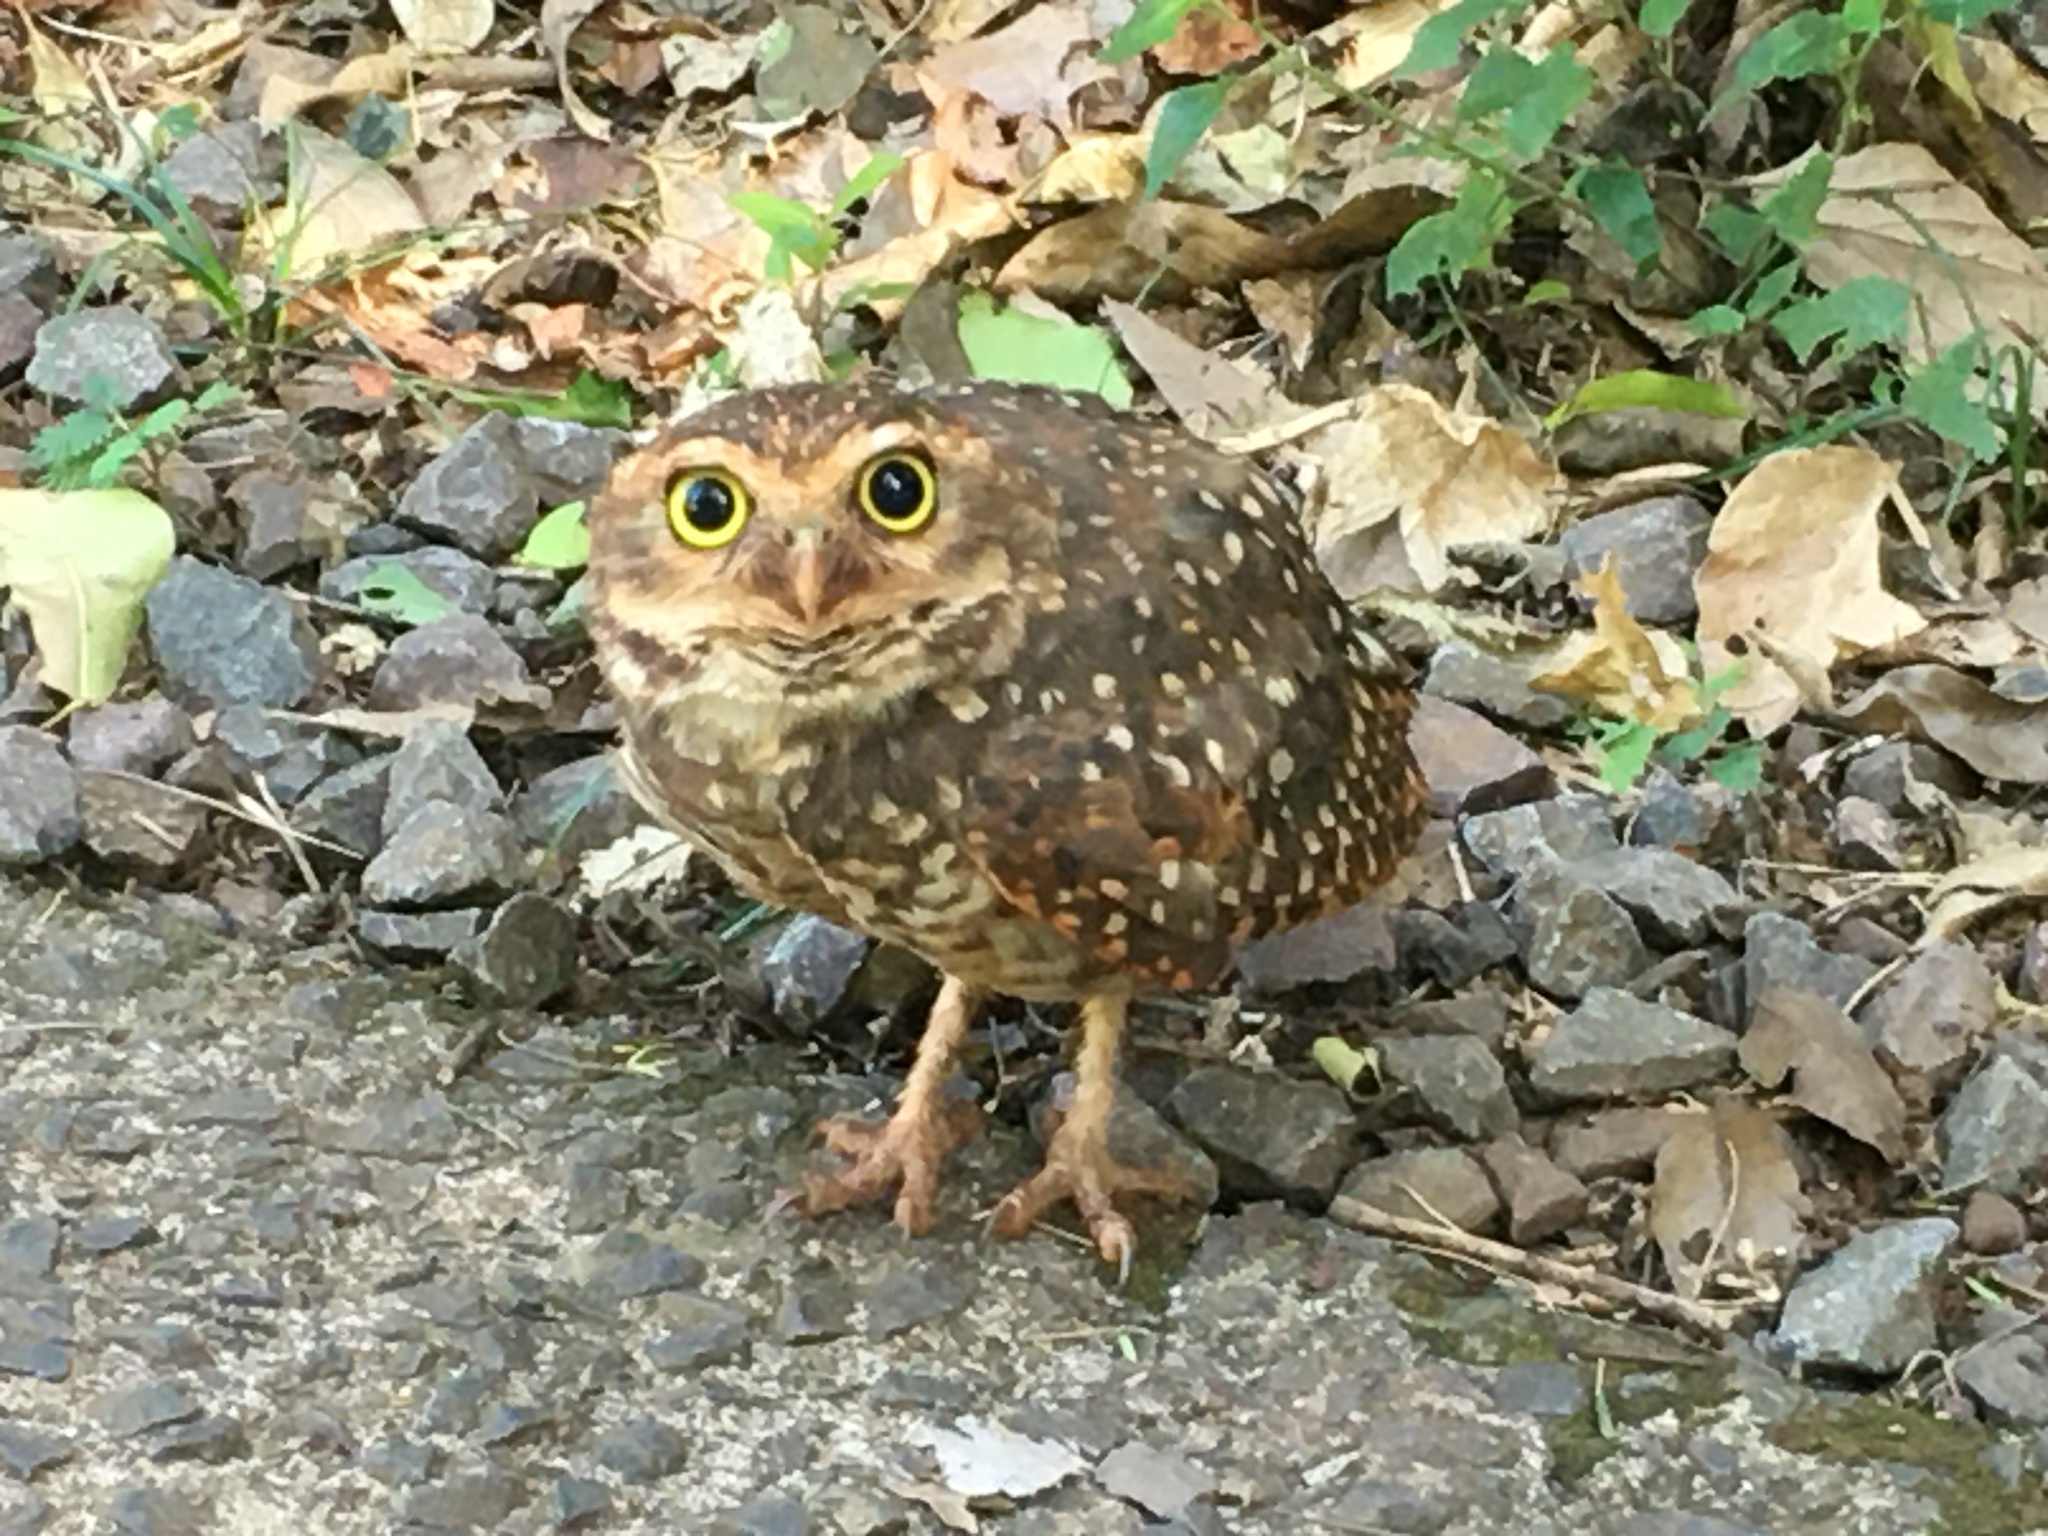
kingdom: Animalia
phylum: Chordata
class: Aves
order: Strigiformes
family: Strigidae
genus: Athene
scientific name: Athene cunicularia
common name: Burrowing owl
